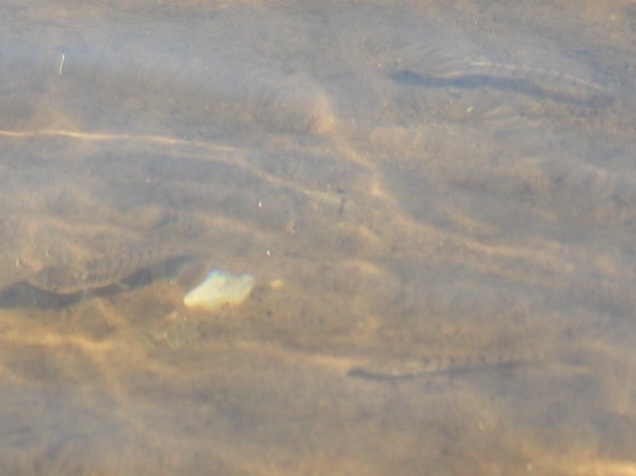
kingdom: Animalia
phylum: Chordata
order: Perciformes
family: Percidae
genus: Percina
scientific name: Percina caprodes
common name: Logperch
